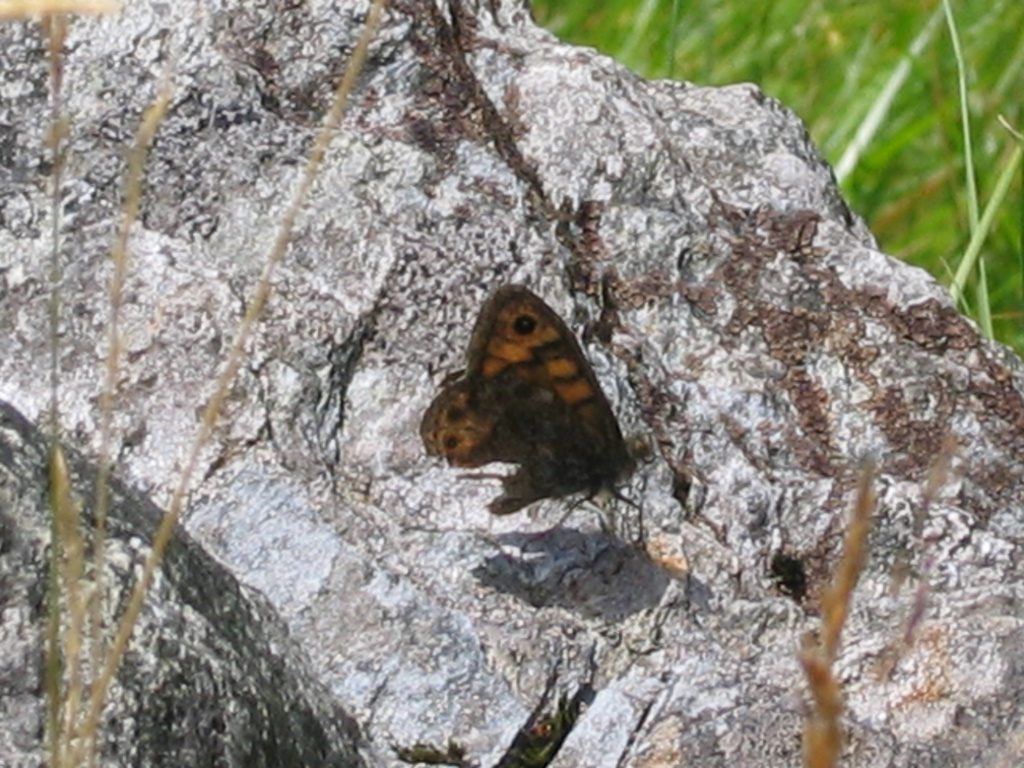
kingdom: Animalia
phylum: Arthropoda
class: Insecta
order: Lepidoptera
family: Nymphalidae
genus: Pararge
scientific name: Pararge Lasiommata megera
